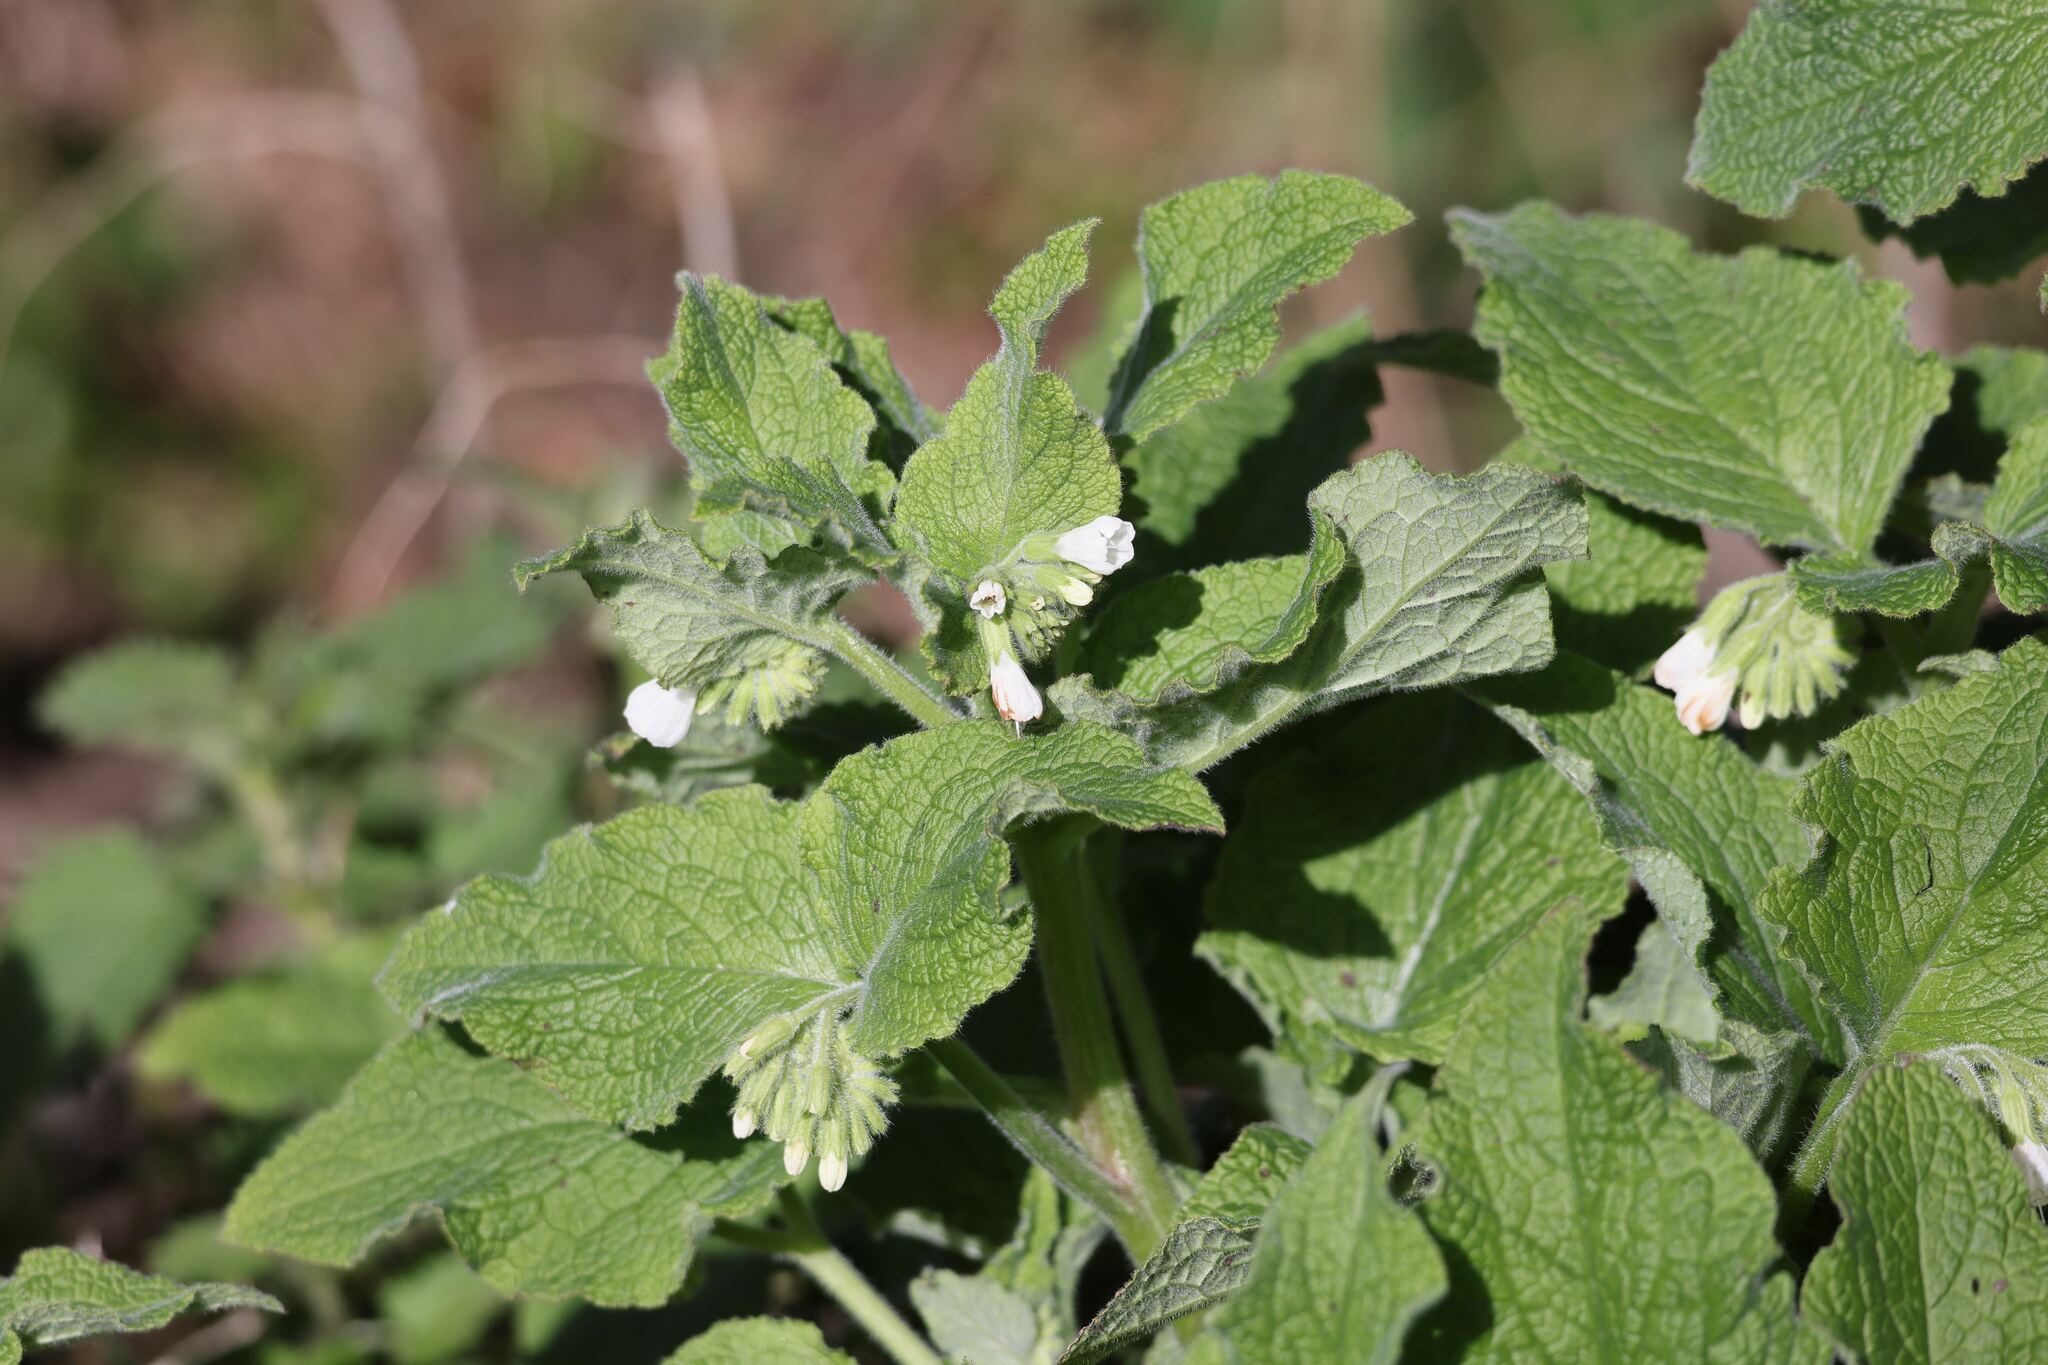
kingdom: Plantae
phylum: Tracheophyta
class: Magnoliopsida
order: Boraginales
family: Boraginaceae
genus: Symphytum
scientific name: Symphytum orientale
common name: White comfrey
